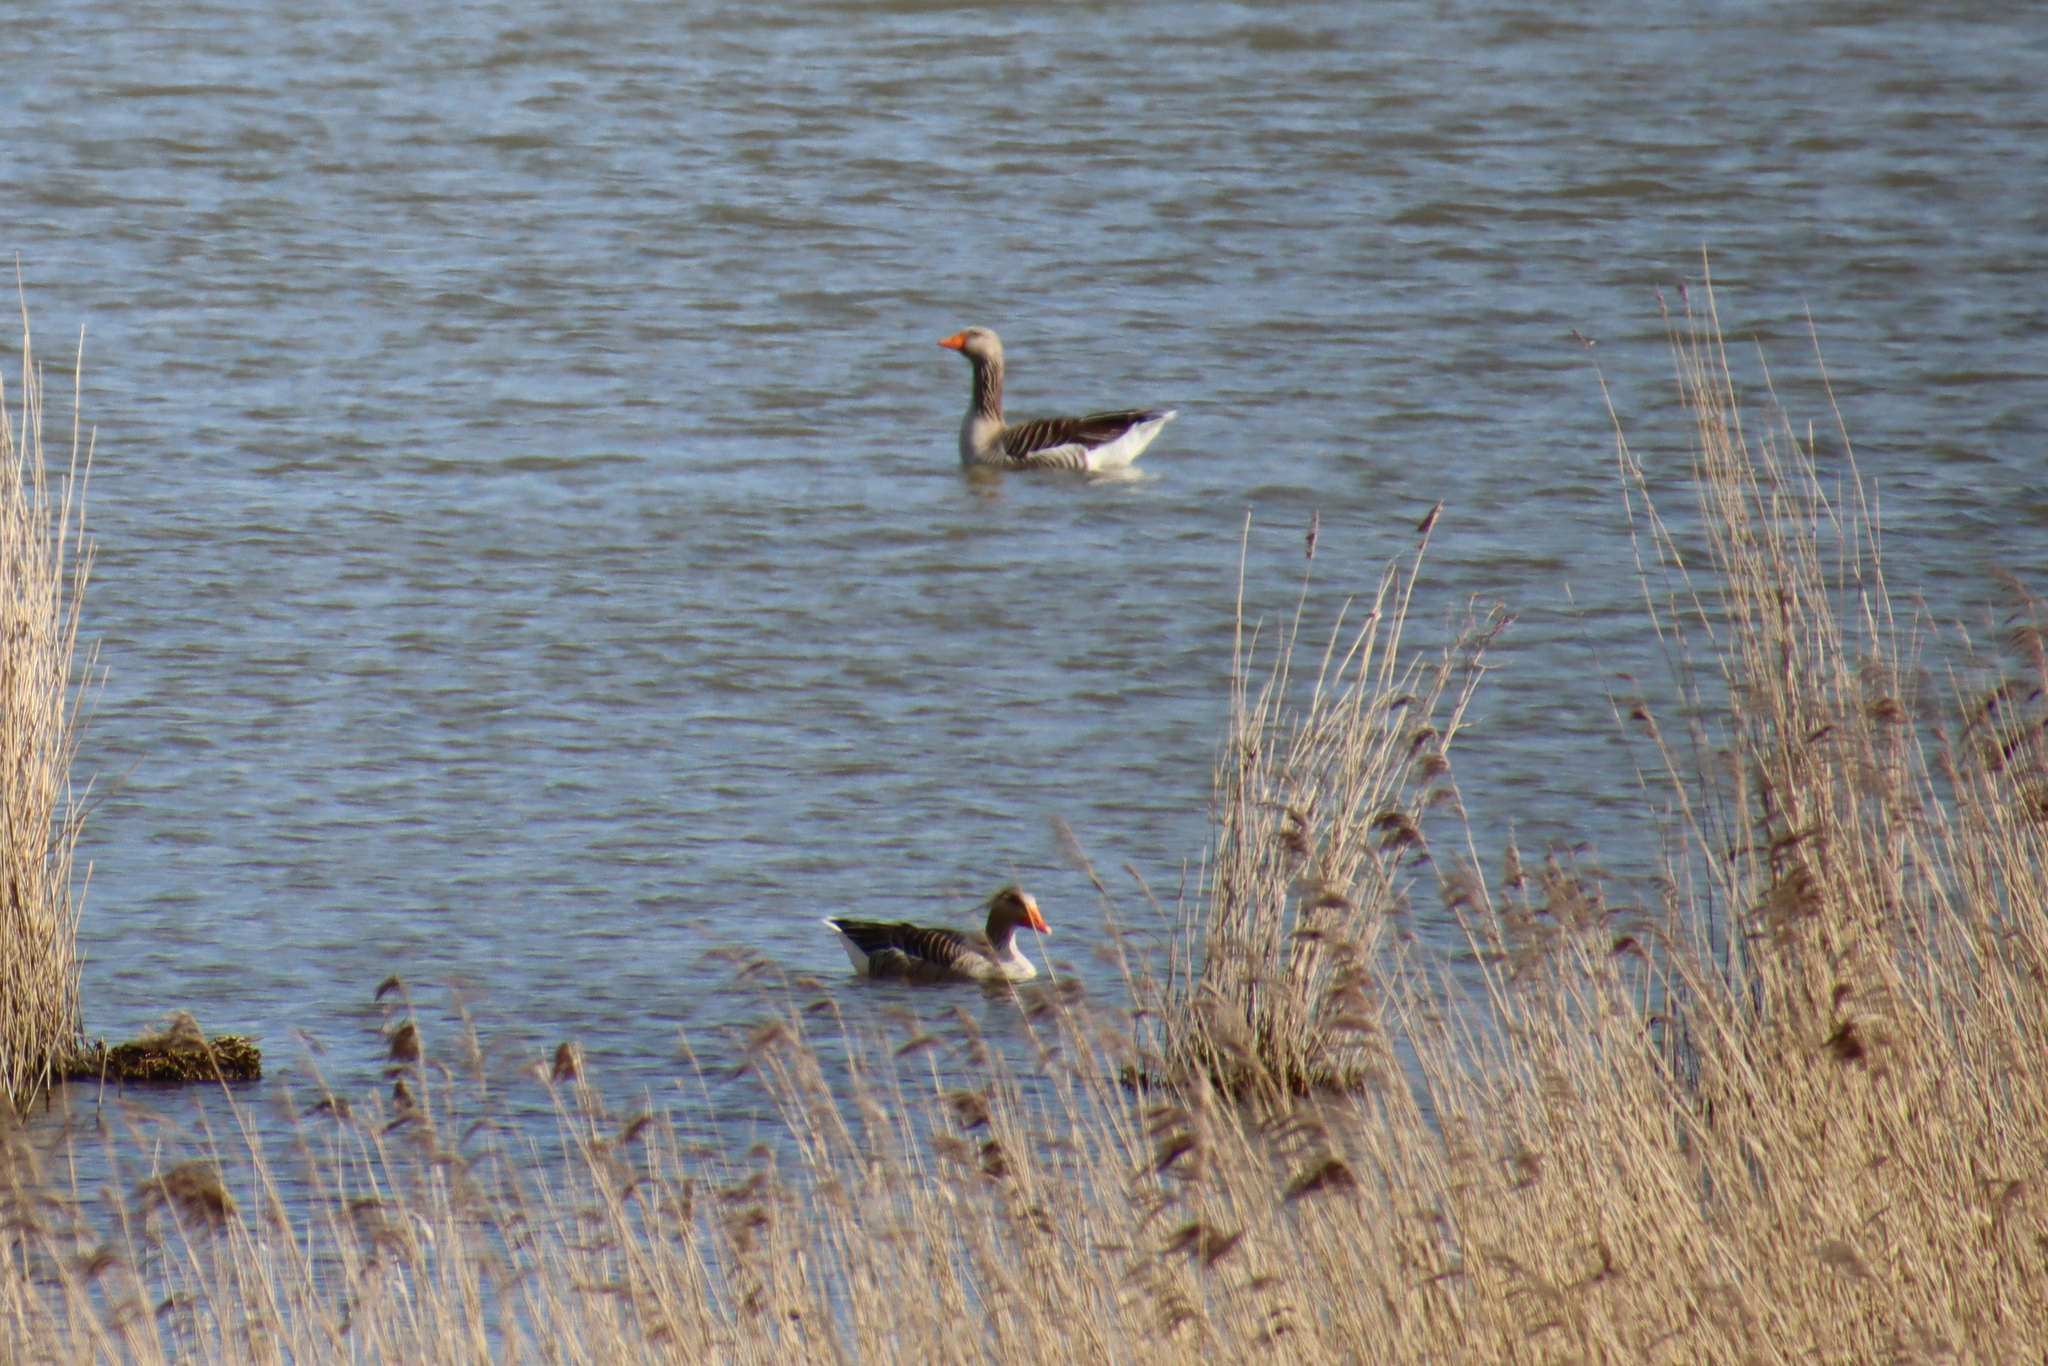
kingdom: Animalia
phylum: Chordata
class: Aves
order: Anseriformes
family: Anatidae
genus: Anser
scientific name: Anser anser
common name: Greylag goose
